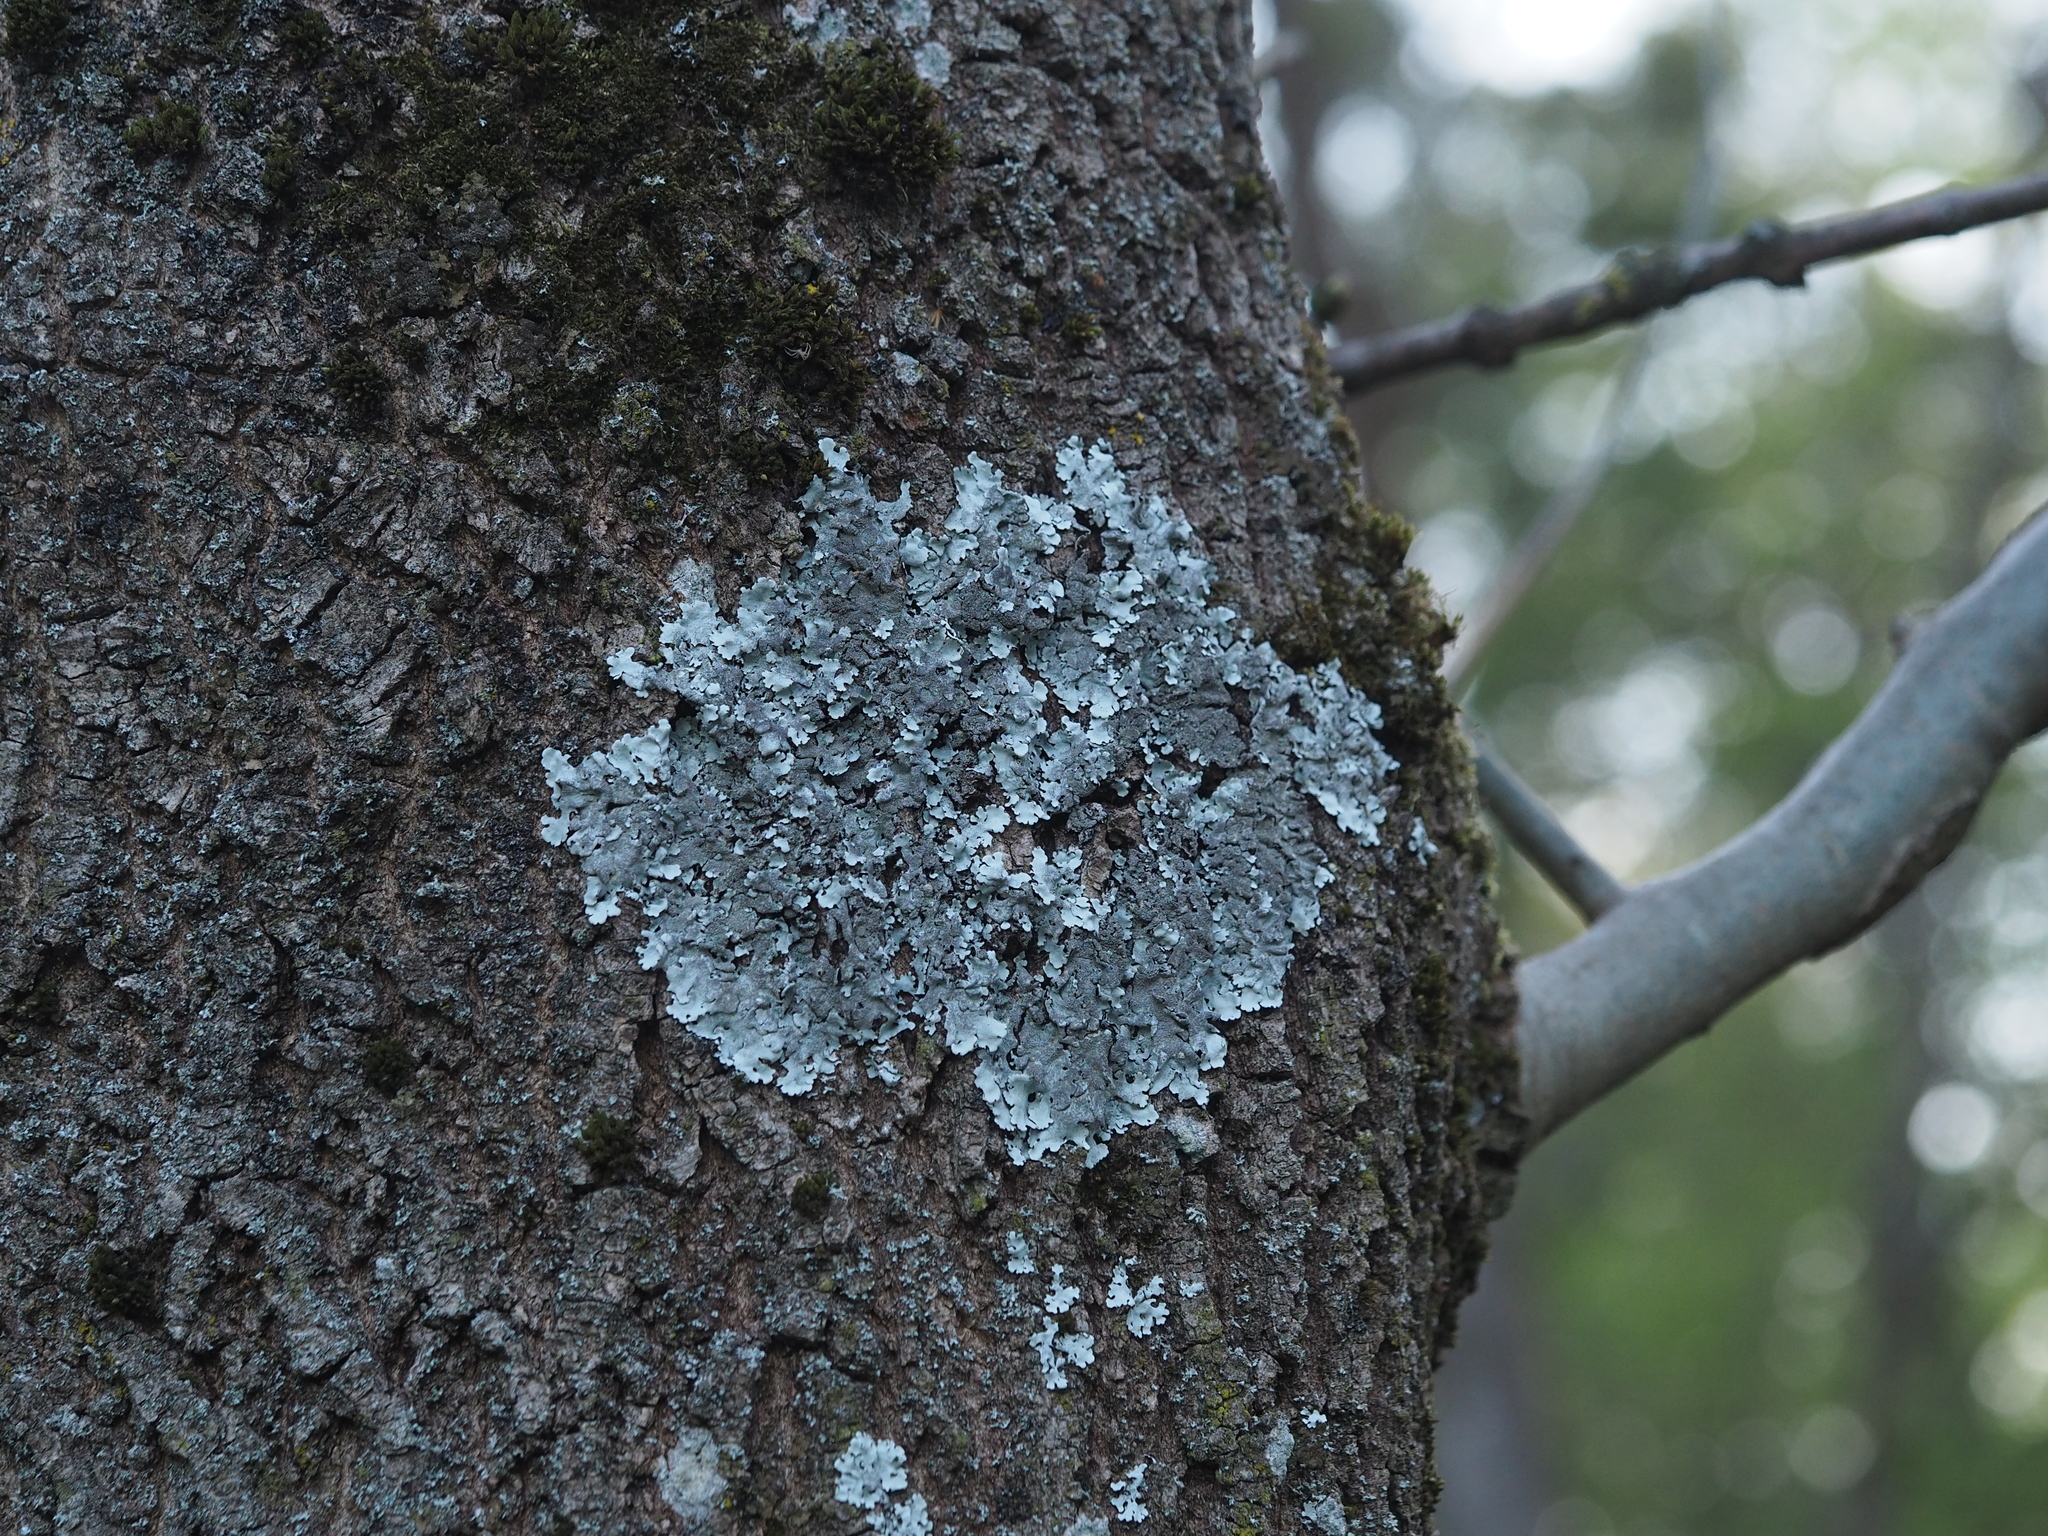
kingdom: Fungi
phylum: Ascomycota
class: Lecanoromycetes
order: Lecanorales
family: Parmeliaceae
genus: Parmelina
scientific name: Parmelina tiliacea
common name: Linden shield lichen
